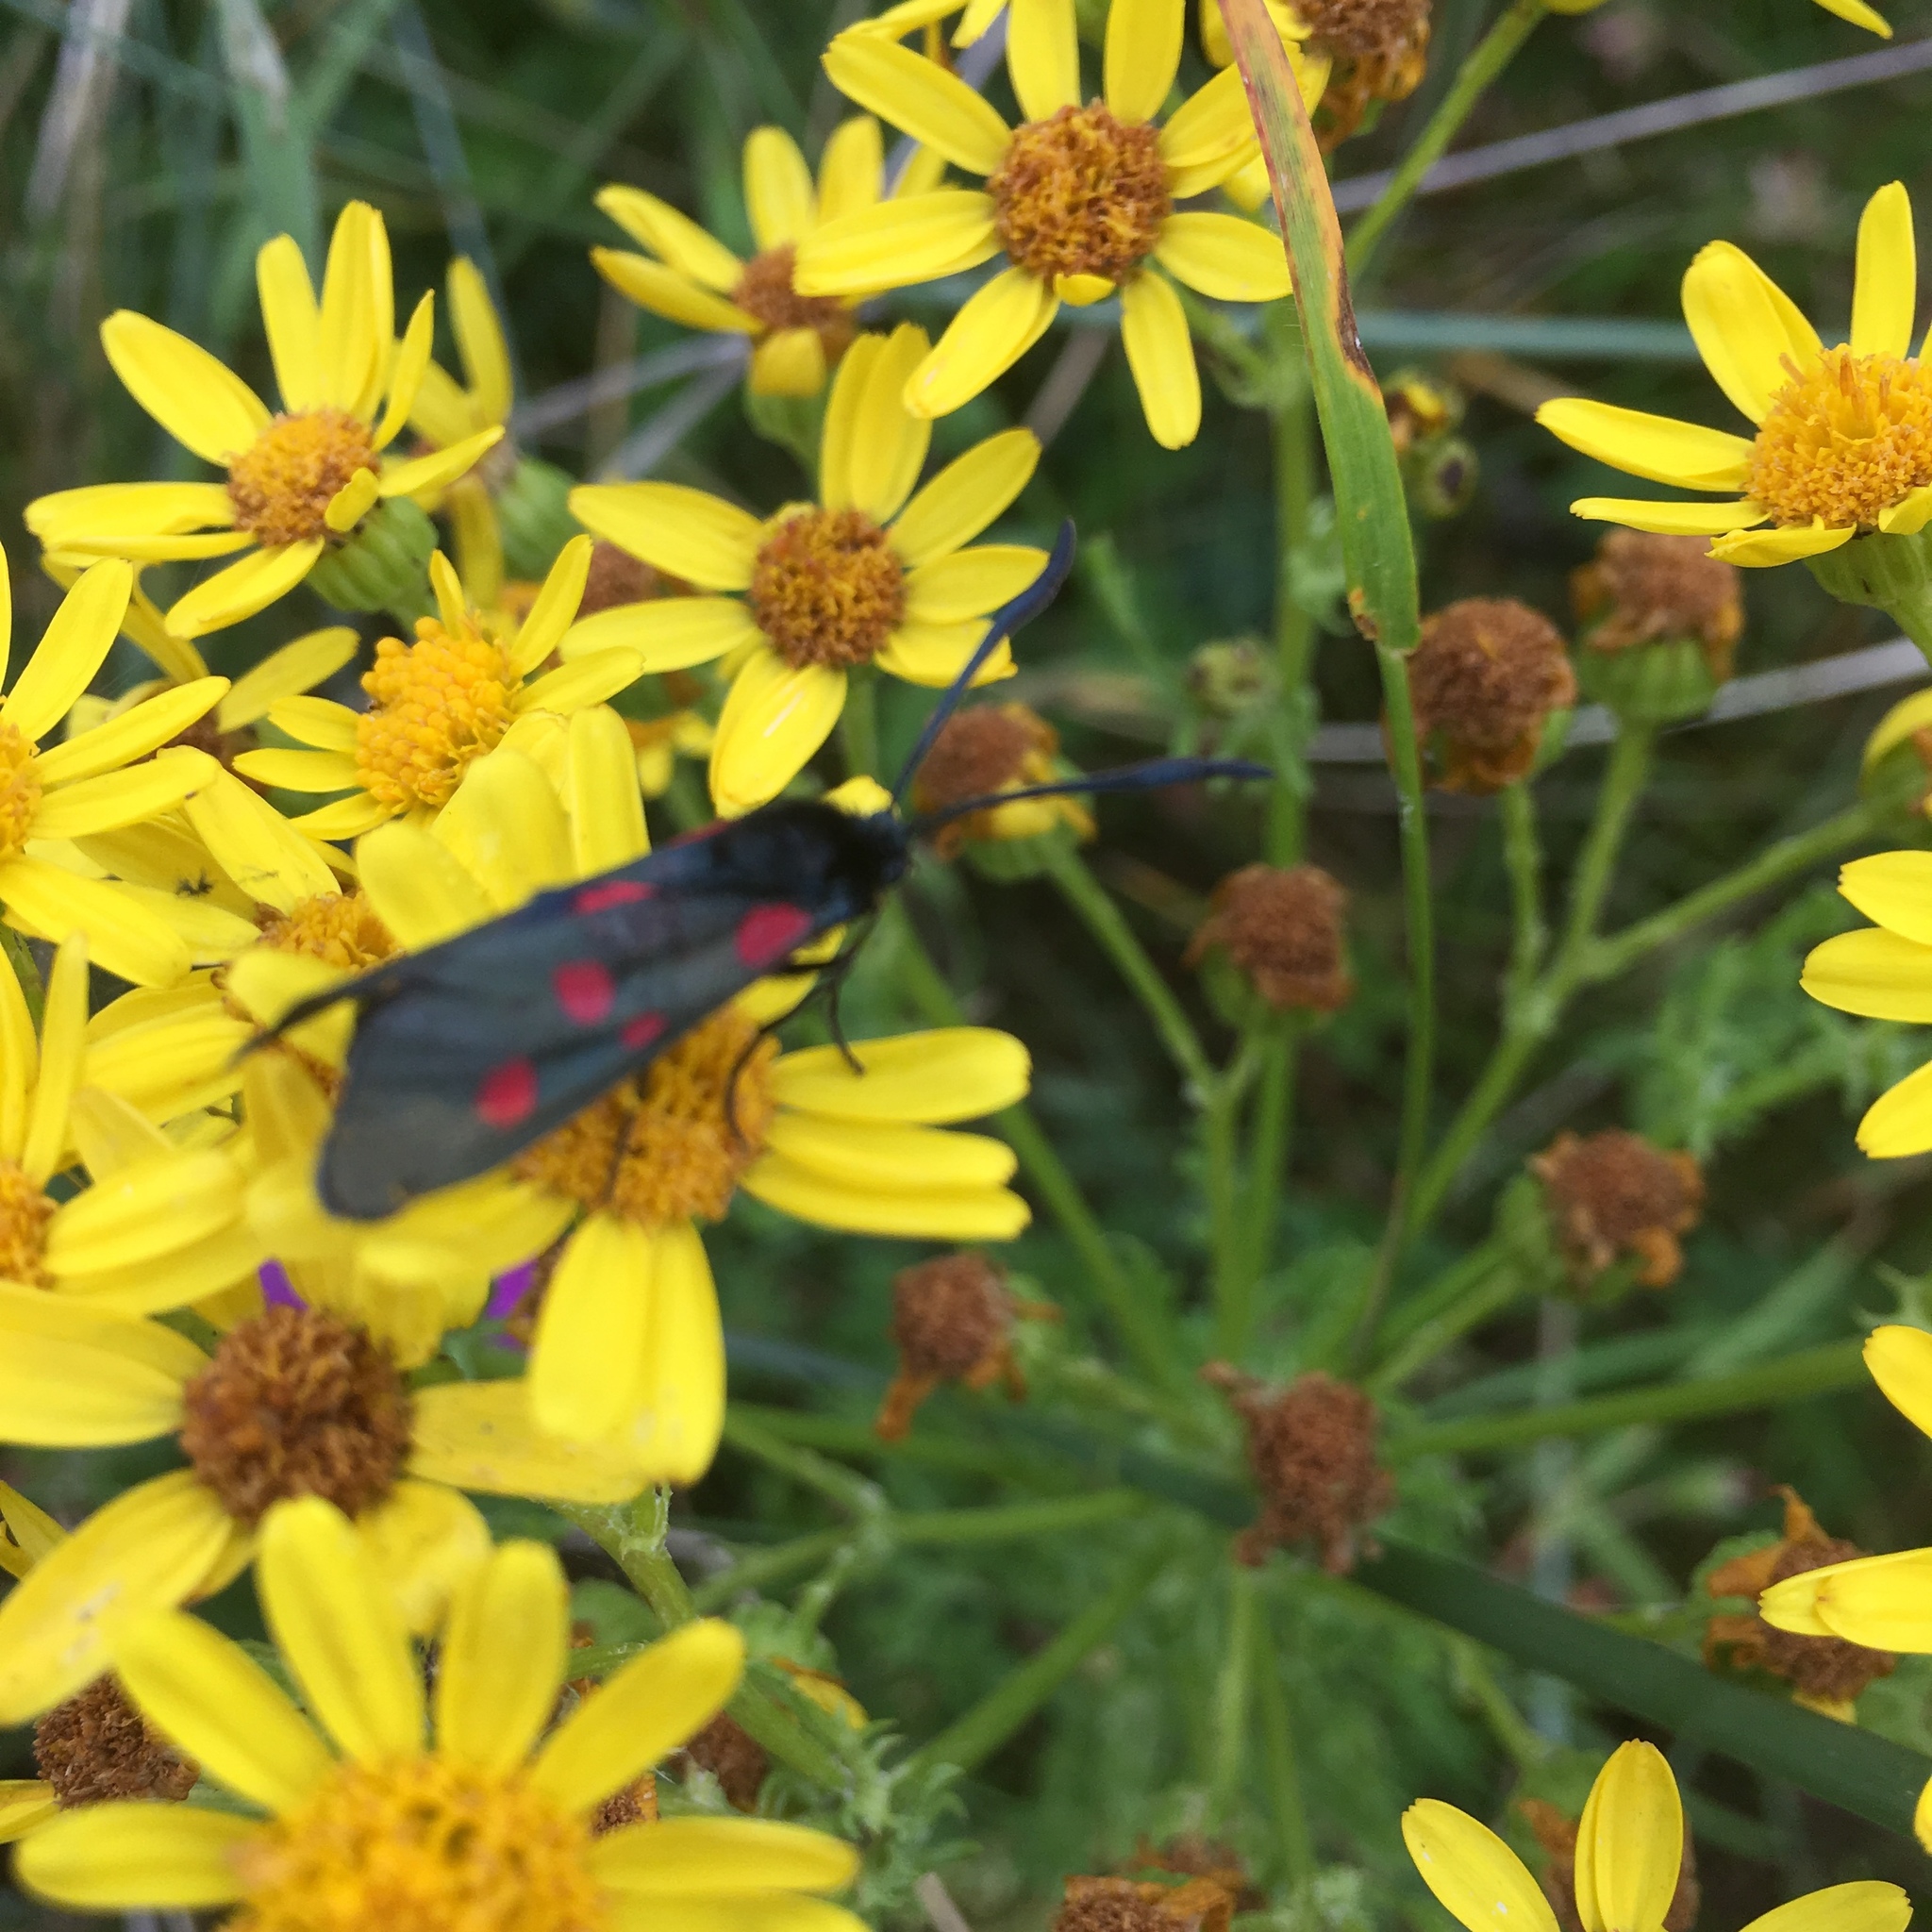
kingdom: Animalia
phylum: Arthropoda
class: Insecta
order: Lepidoptera
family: Zygaenidae
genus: Zygaena
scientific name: Zygaena lonicerae
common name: Narrow-bordered five-spot burnet
